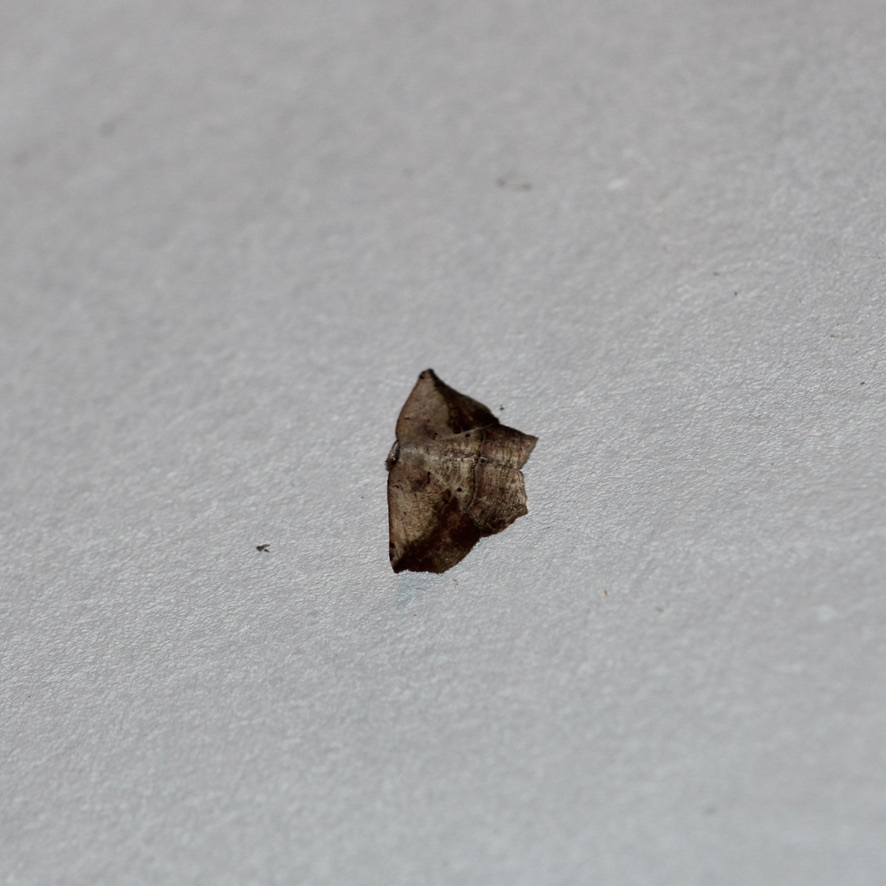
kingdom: Animalia
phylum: Arthropoda
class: Insecta
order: Lepidoptera
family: Geometridae
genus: Eusarca
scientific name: Eusarca concomitaria
